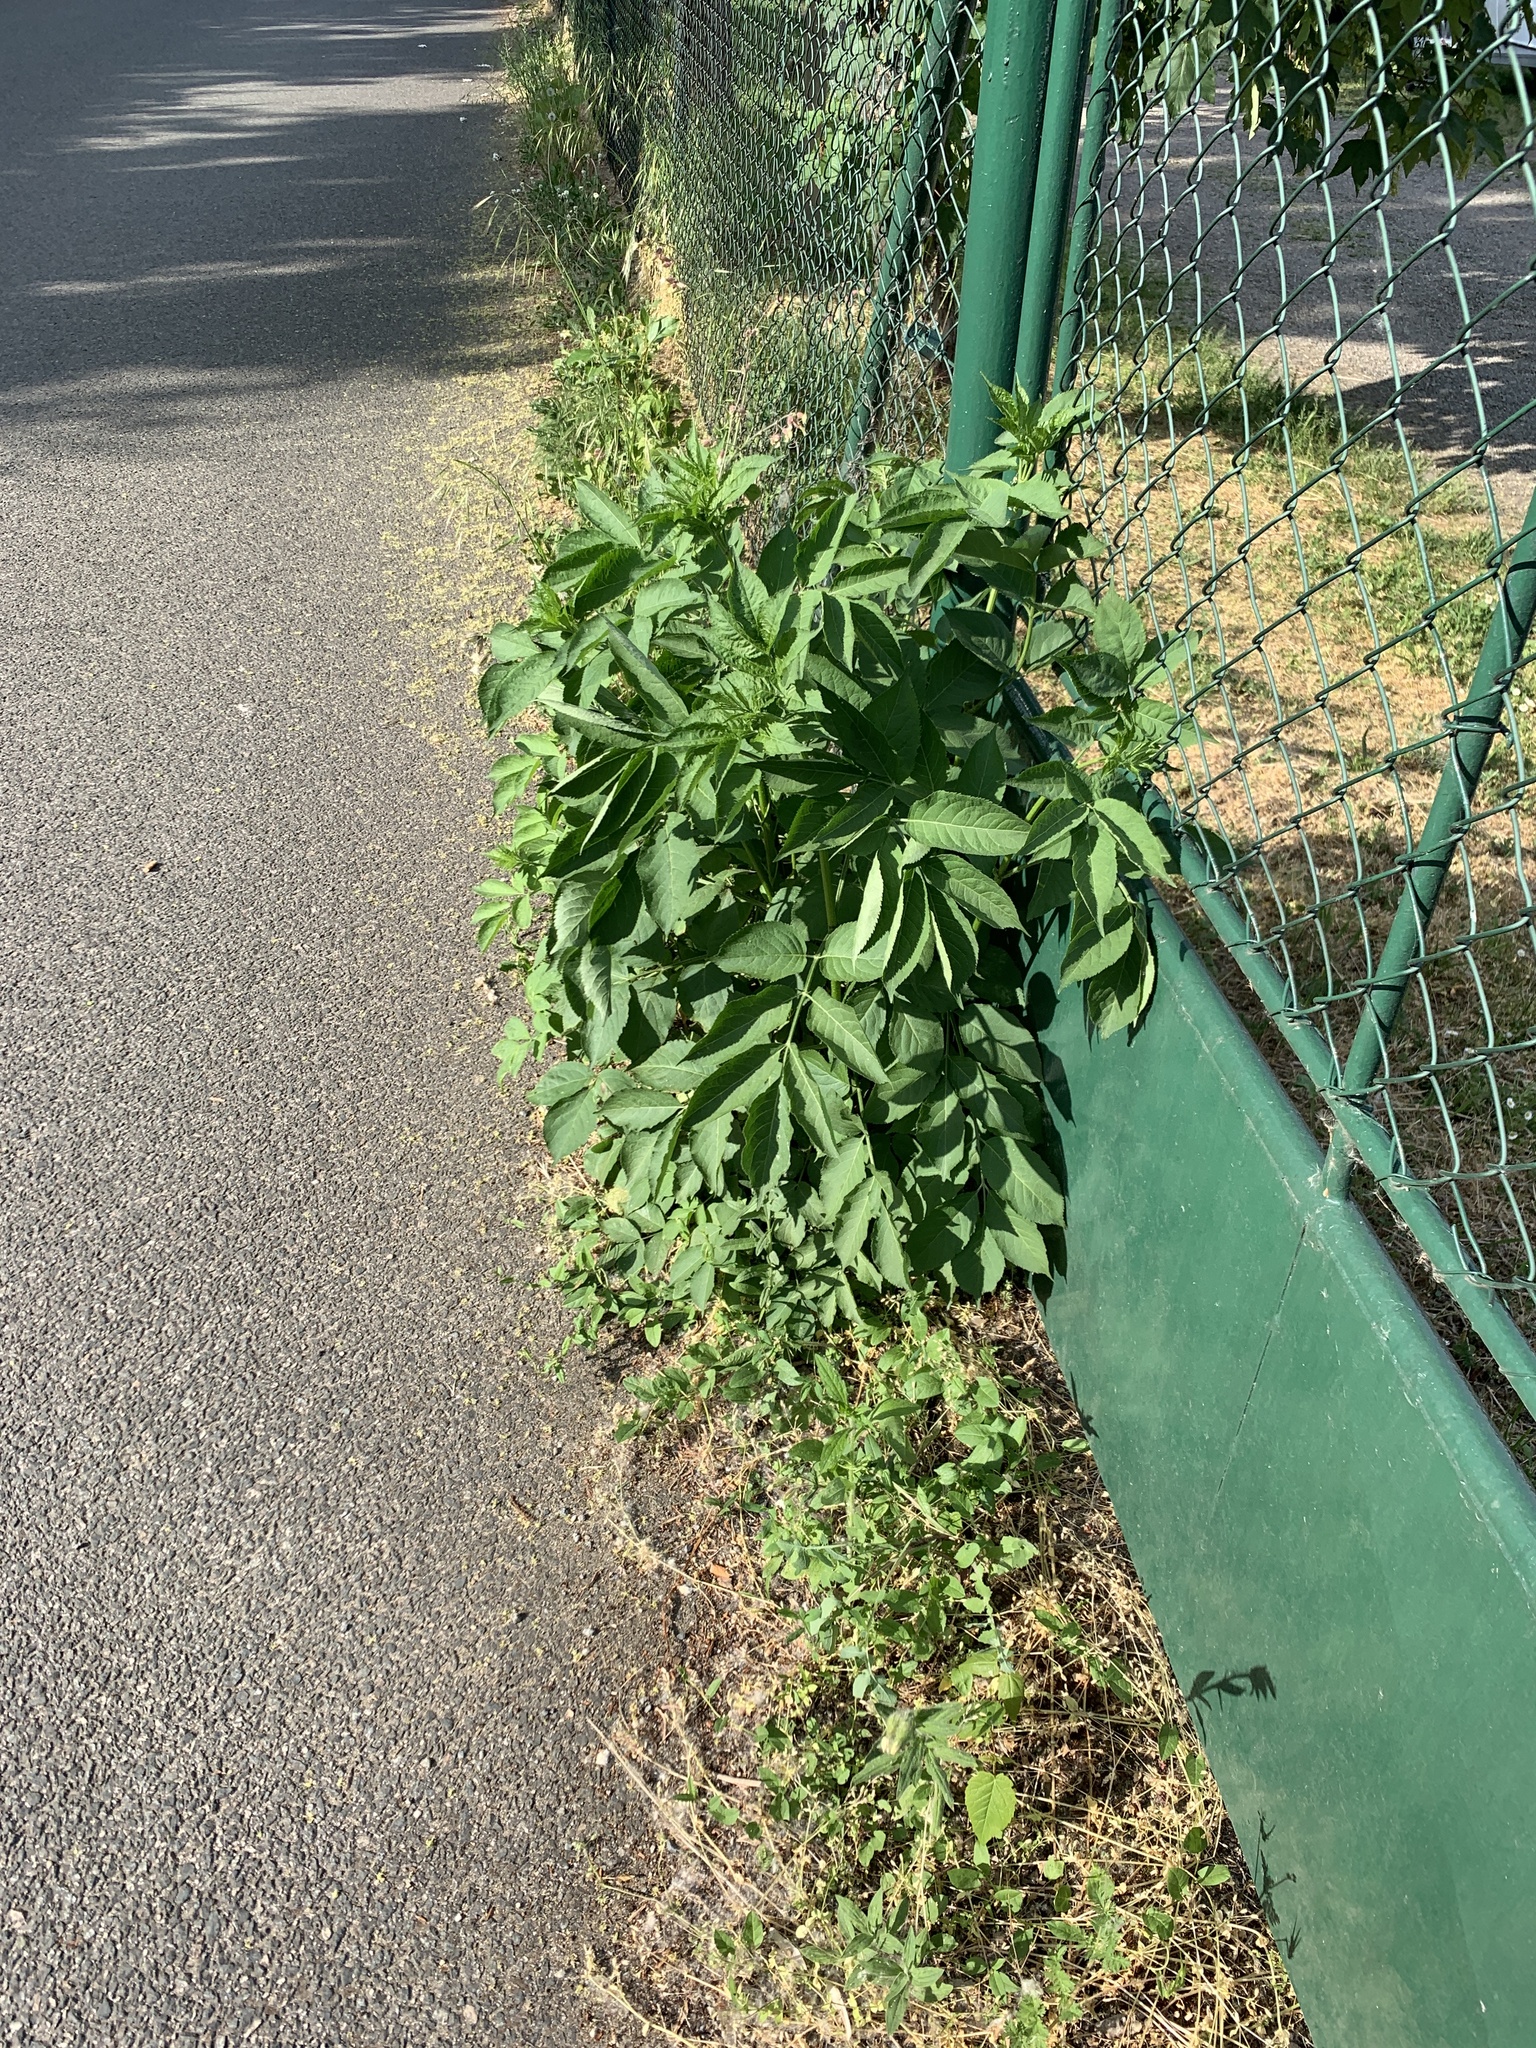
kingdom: Plantae
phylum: Tracheophyta
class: Magnoliopsida
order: Dipsacales
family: Viburnaceae
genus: Sambucus
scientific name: Sambucus nigra
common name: Elder
